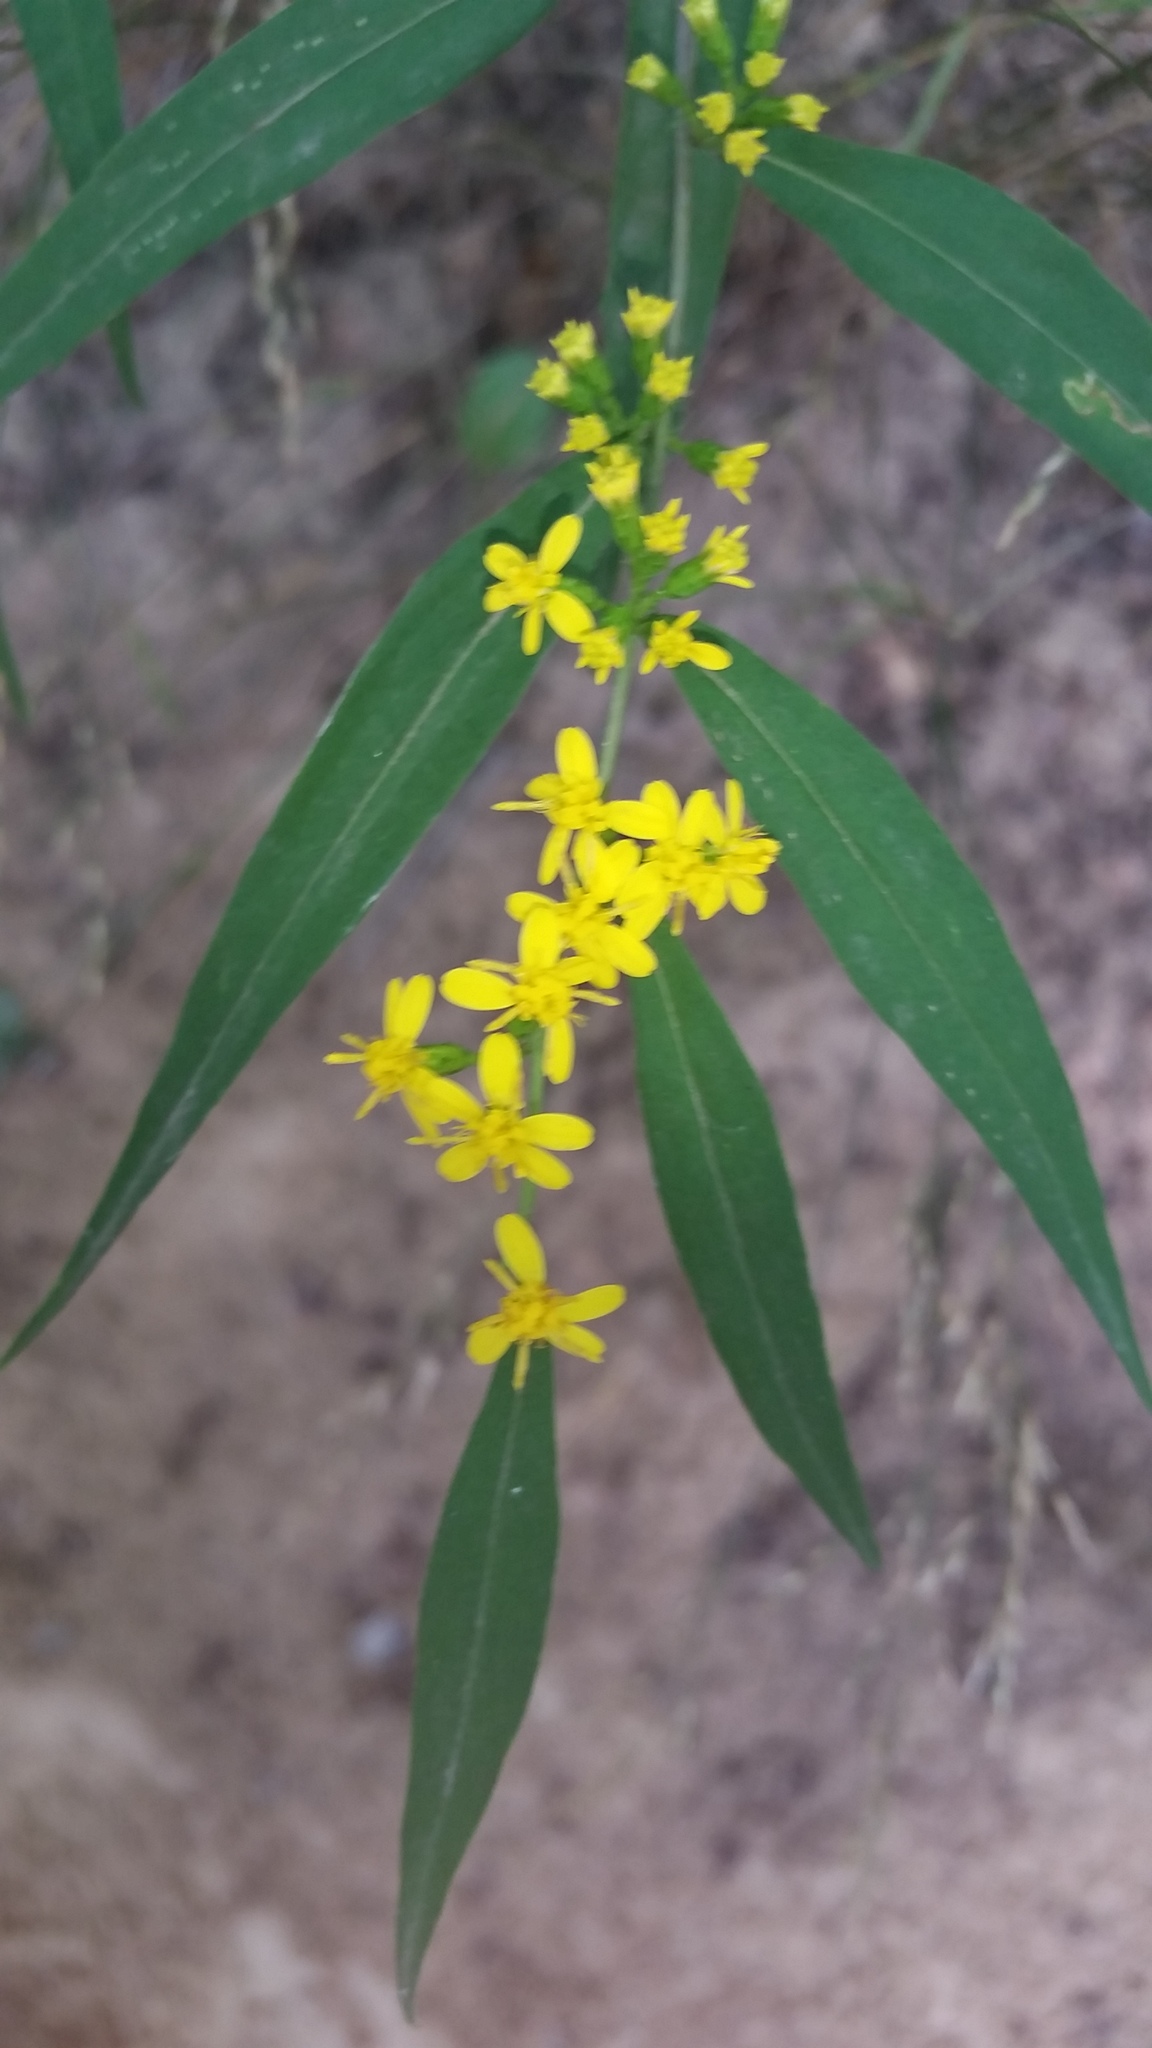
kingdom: Plantae
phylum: Tracheophyta
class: Magnoliopsida
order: Asterales
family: Asteraceae
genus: Solidago
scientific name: Solidago caesia
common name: Woodland goldenrod
